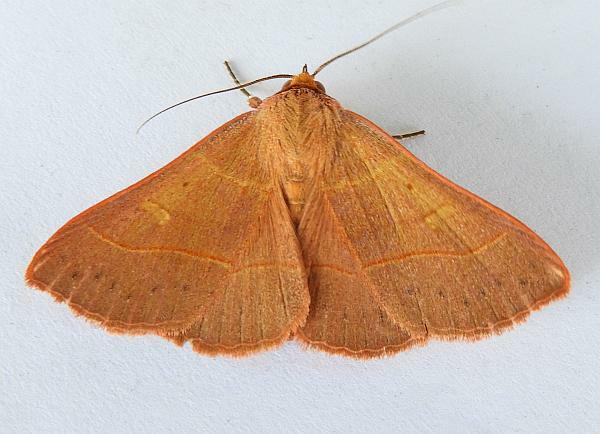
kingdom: Animalia
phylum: Arthropoda
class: Insecta
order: Lepidoptera
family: Erebidae
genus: Panopoda
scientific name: Panopoda rufimargo
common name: Red-lined panopoda moth
